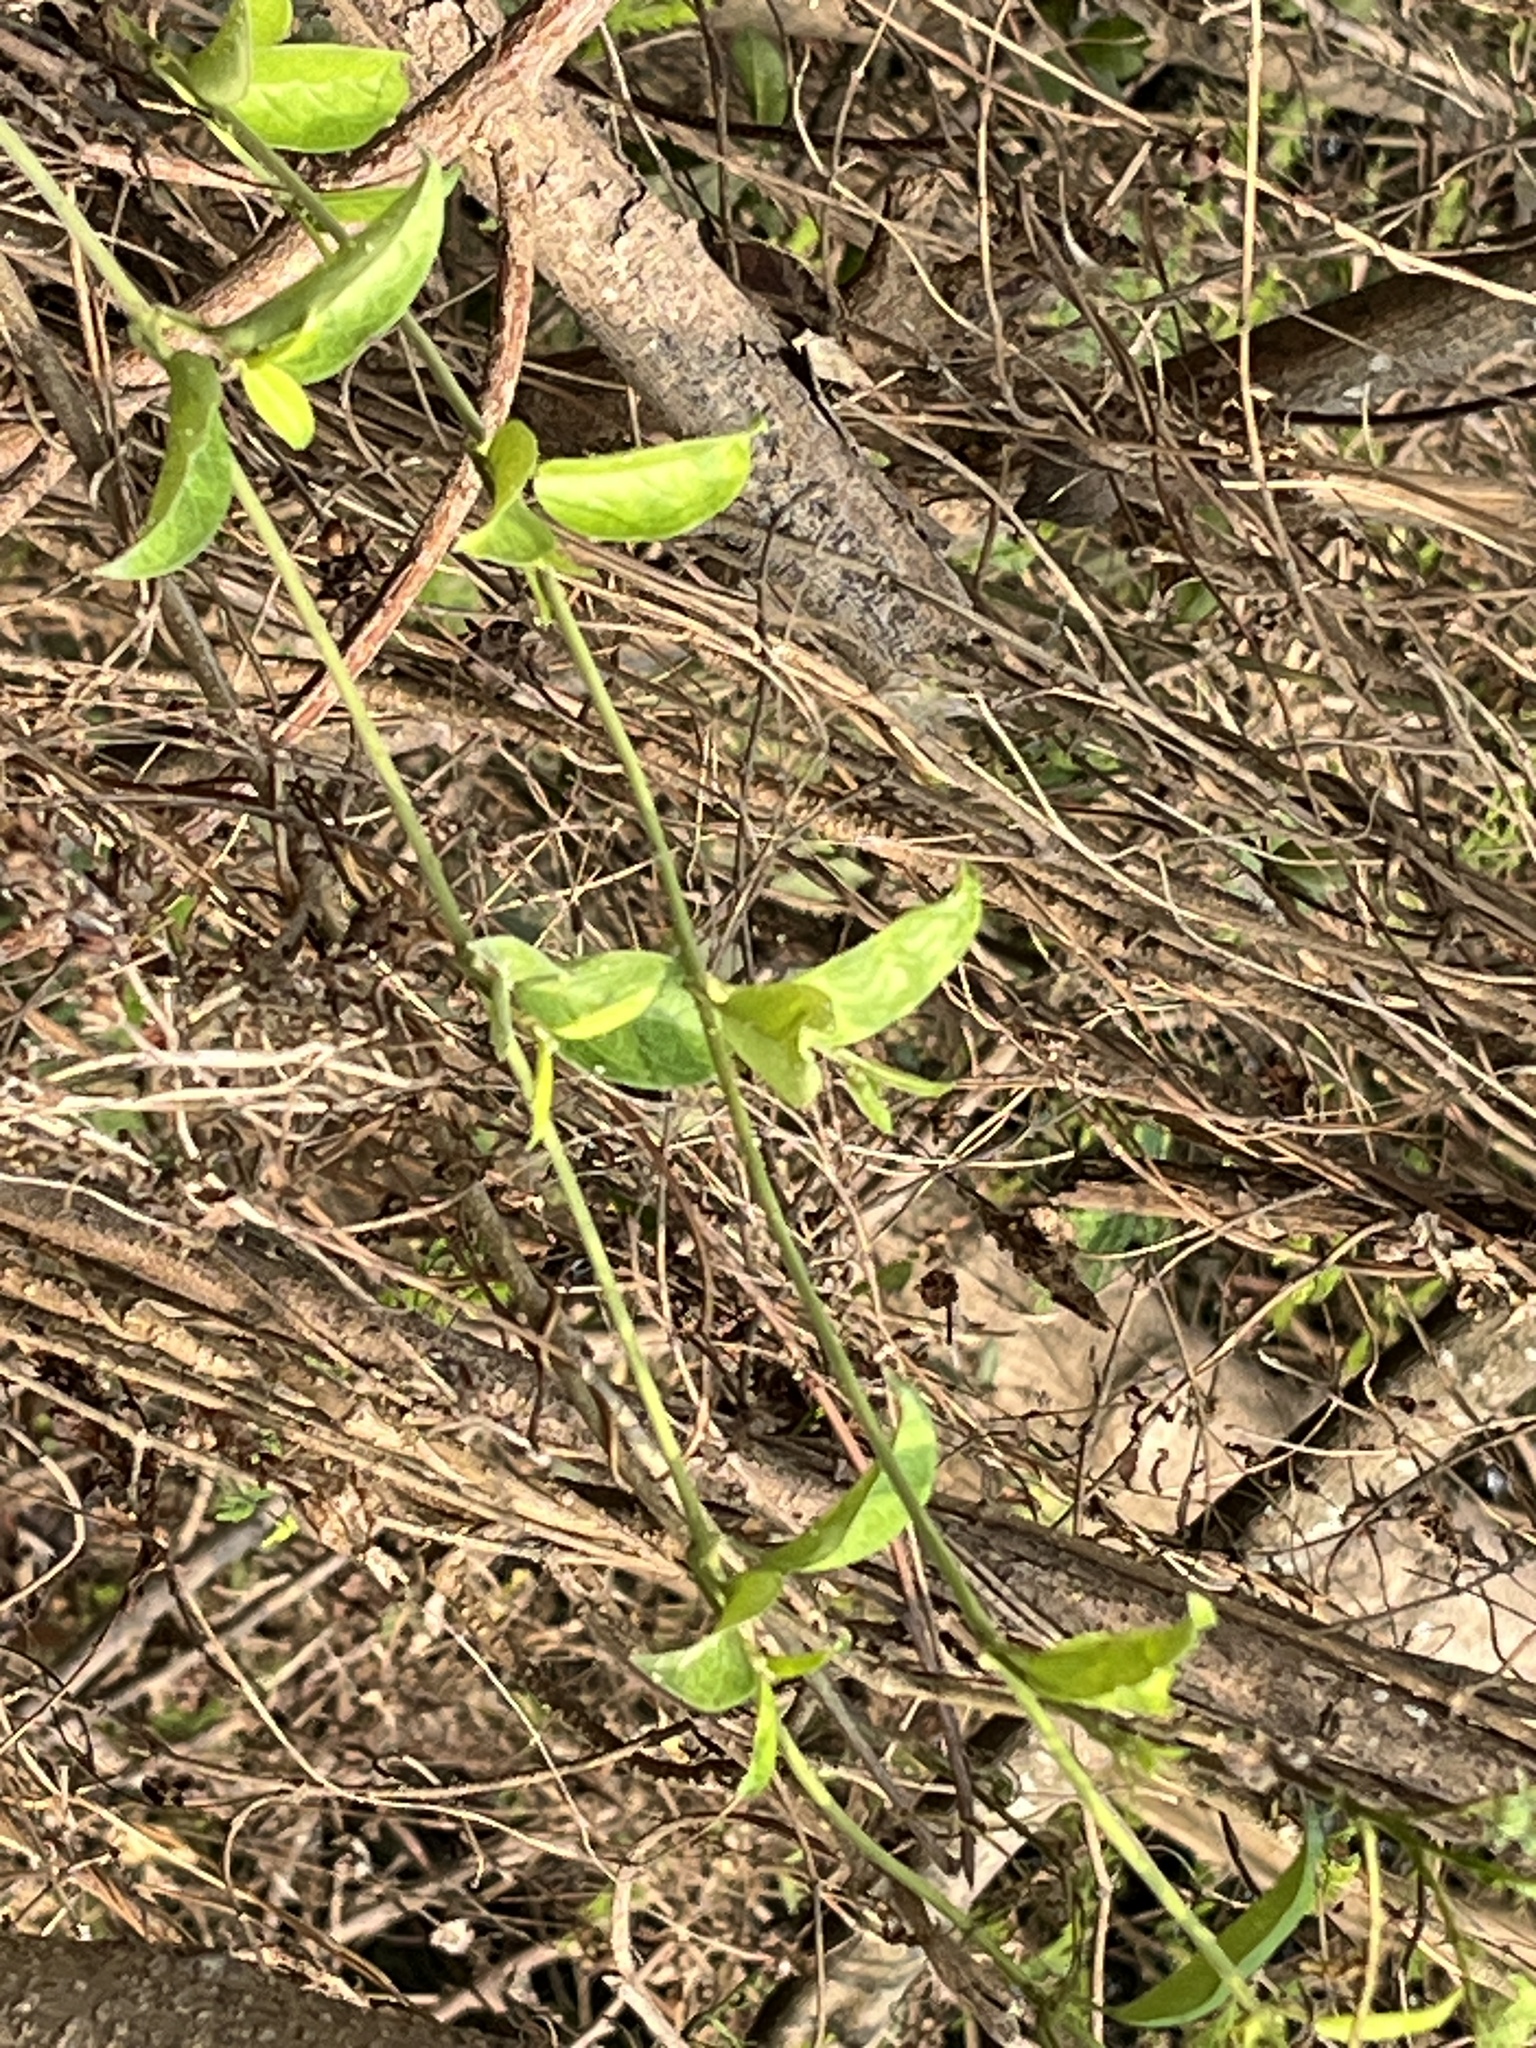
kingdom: Plantae
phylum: Tracheophyta
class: Magnoliopsida
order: Gentianales
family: Apocynaceae
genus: Gymnema
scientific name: Gymnema sylvestre
